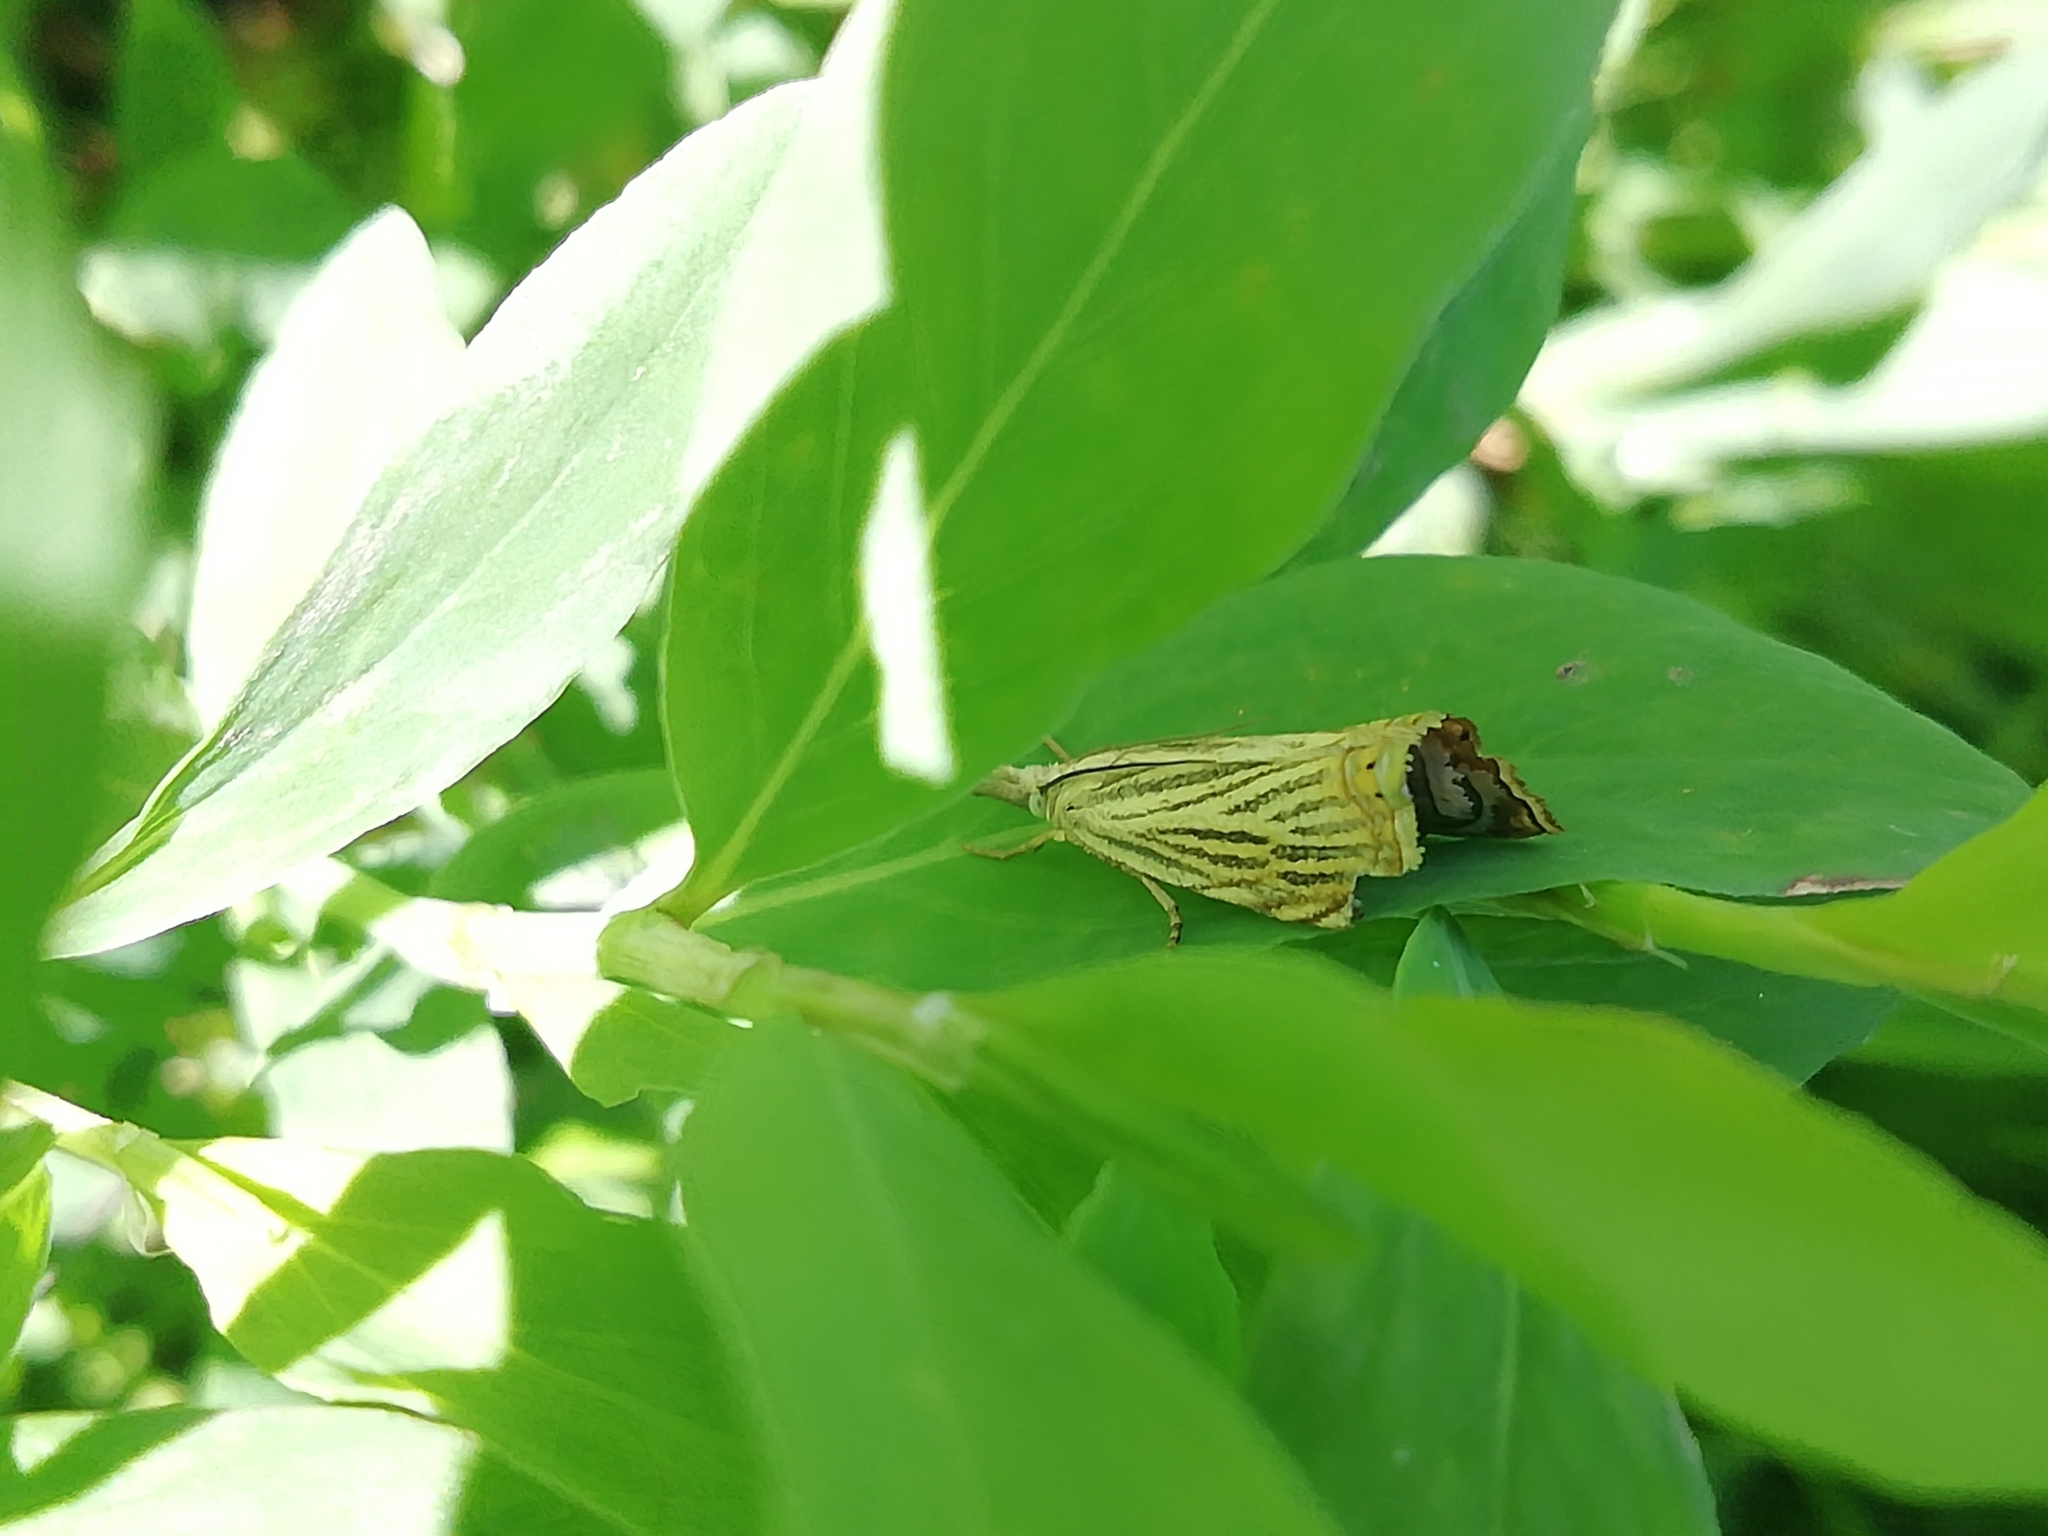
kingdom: Animalia
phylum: Arthropoda
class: Insecta
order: Lepidoptera
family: Crambidae
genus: Chrysoteuchia
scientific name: Chrysoteuchia culmella
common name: Garden grass-veneer
